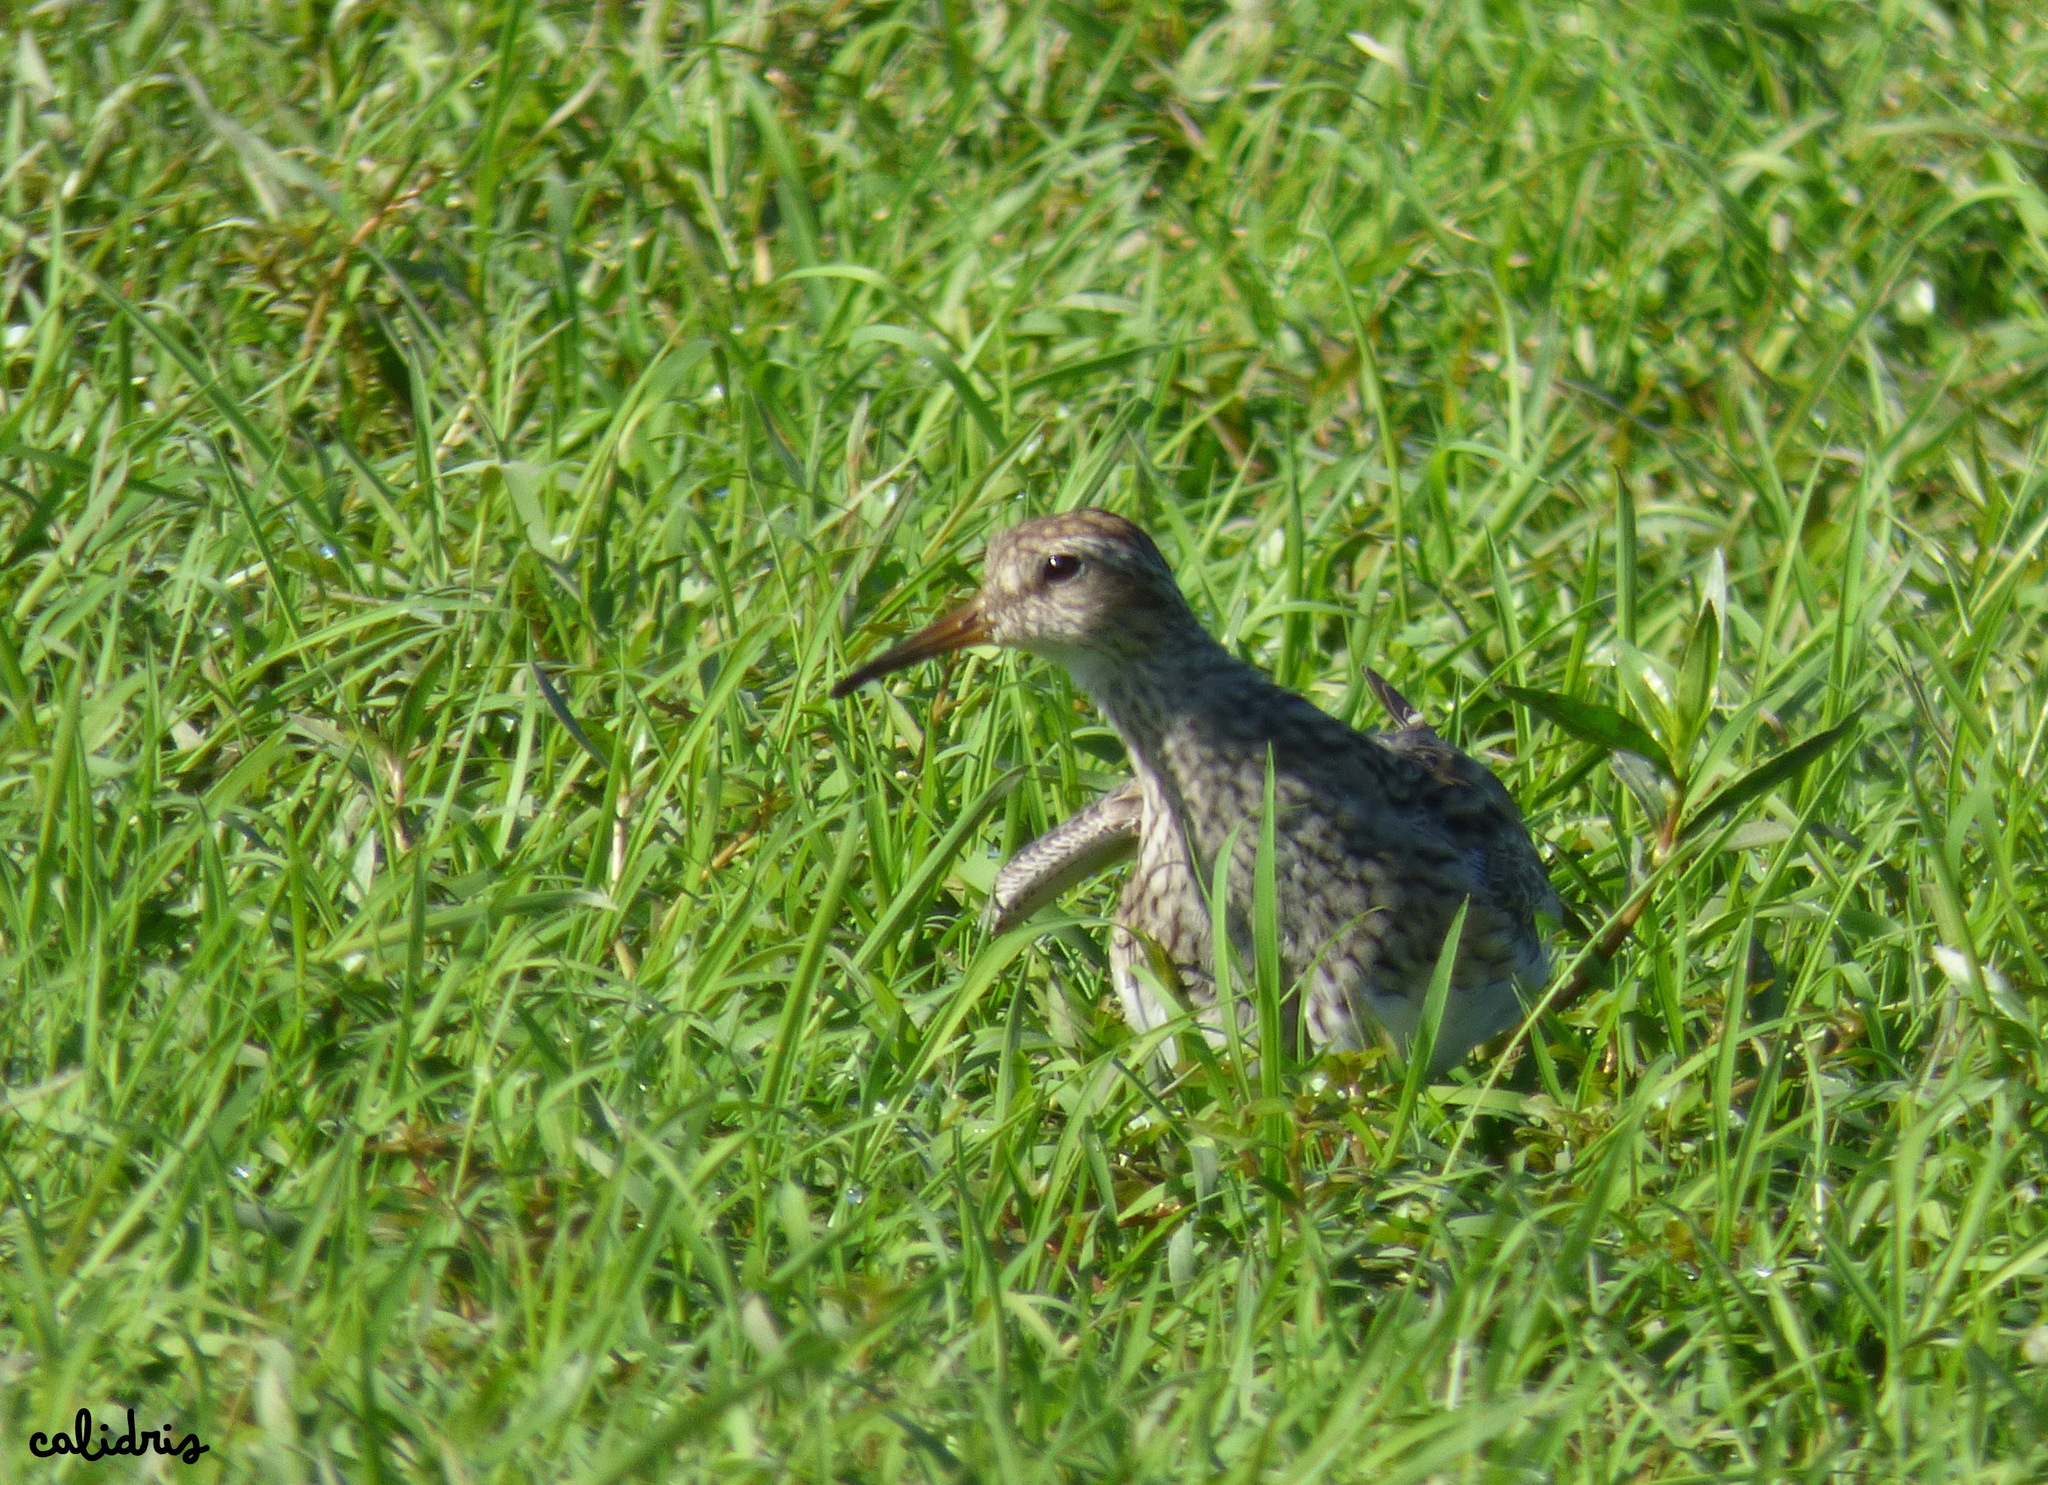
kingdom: Animalia
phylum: Chordata
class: Aves
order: Charadriiformes
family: Scolopacidae
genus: Calidris
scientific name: Calidris melanotos
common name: Pectoral sandpiper
